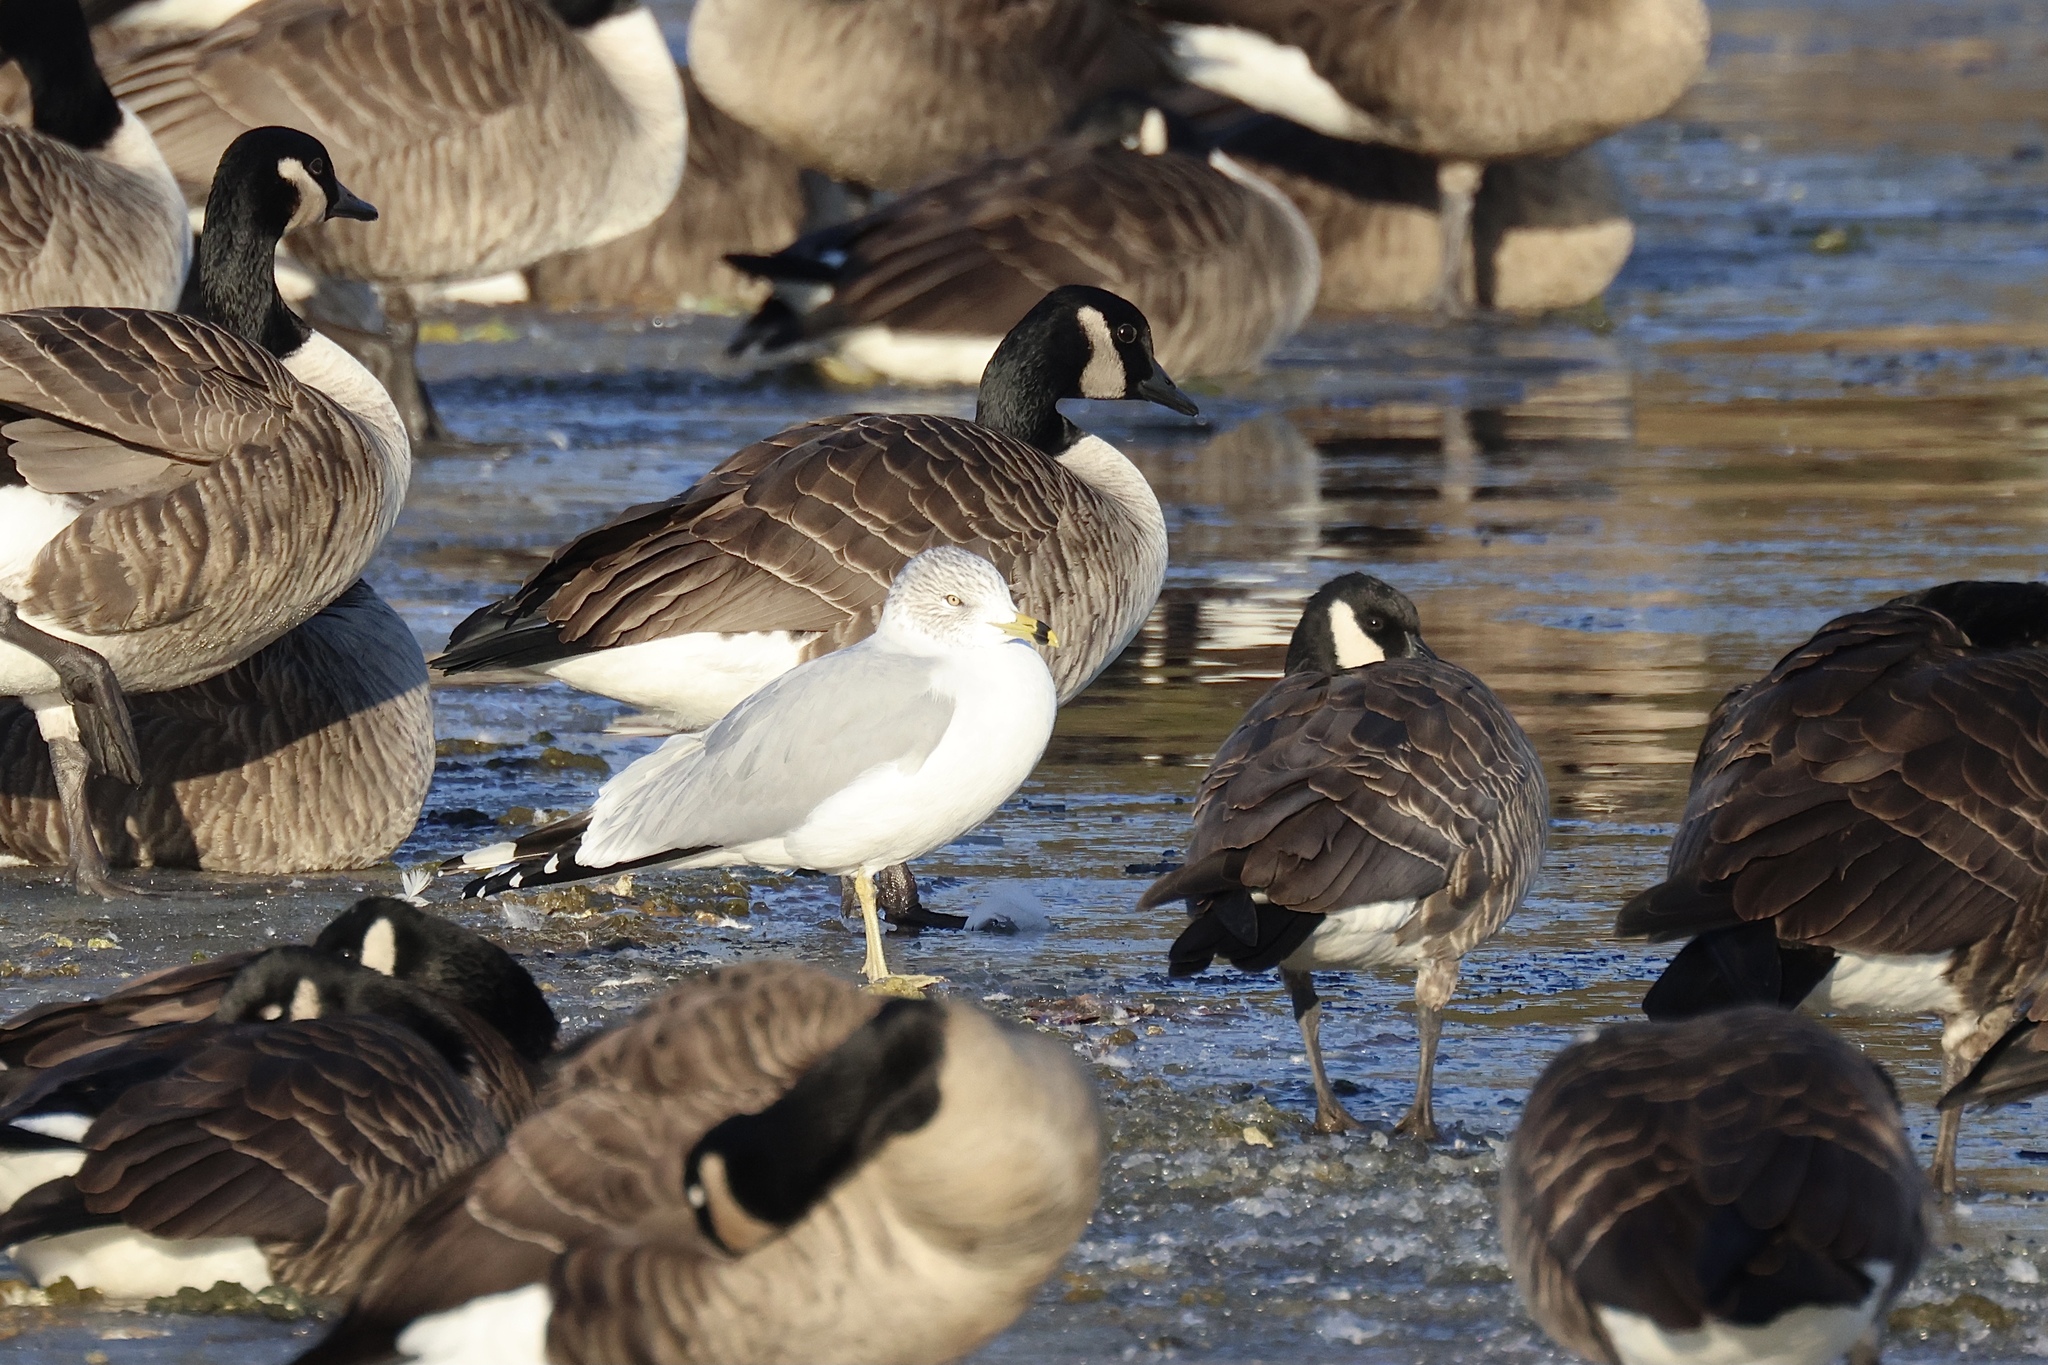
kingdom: Animalia
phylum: Chordata
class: Aves
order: Anseriformes
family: Anatidae
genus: Branta
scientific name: Branta canadensis
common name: Canada goose
